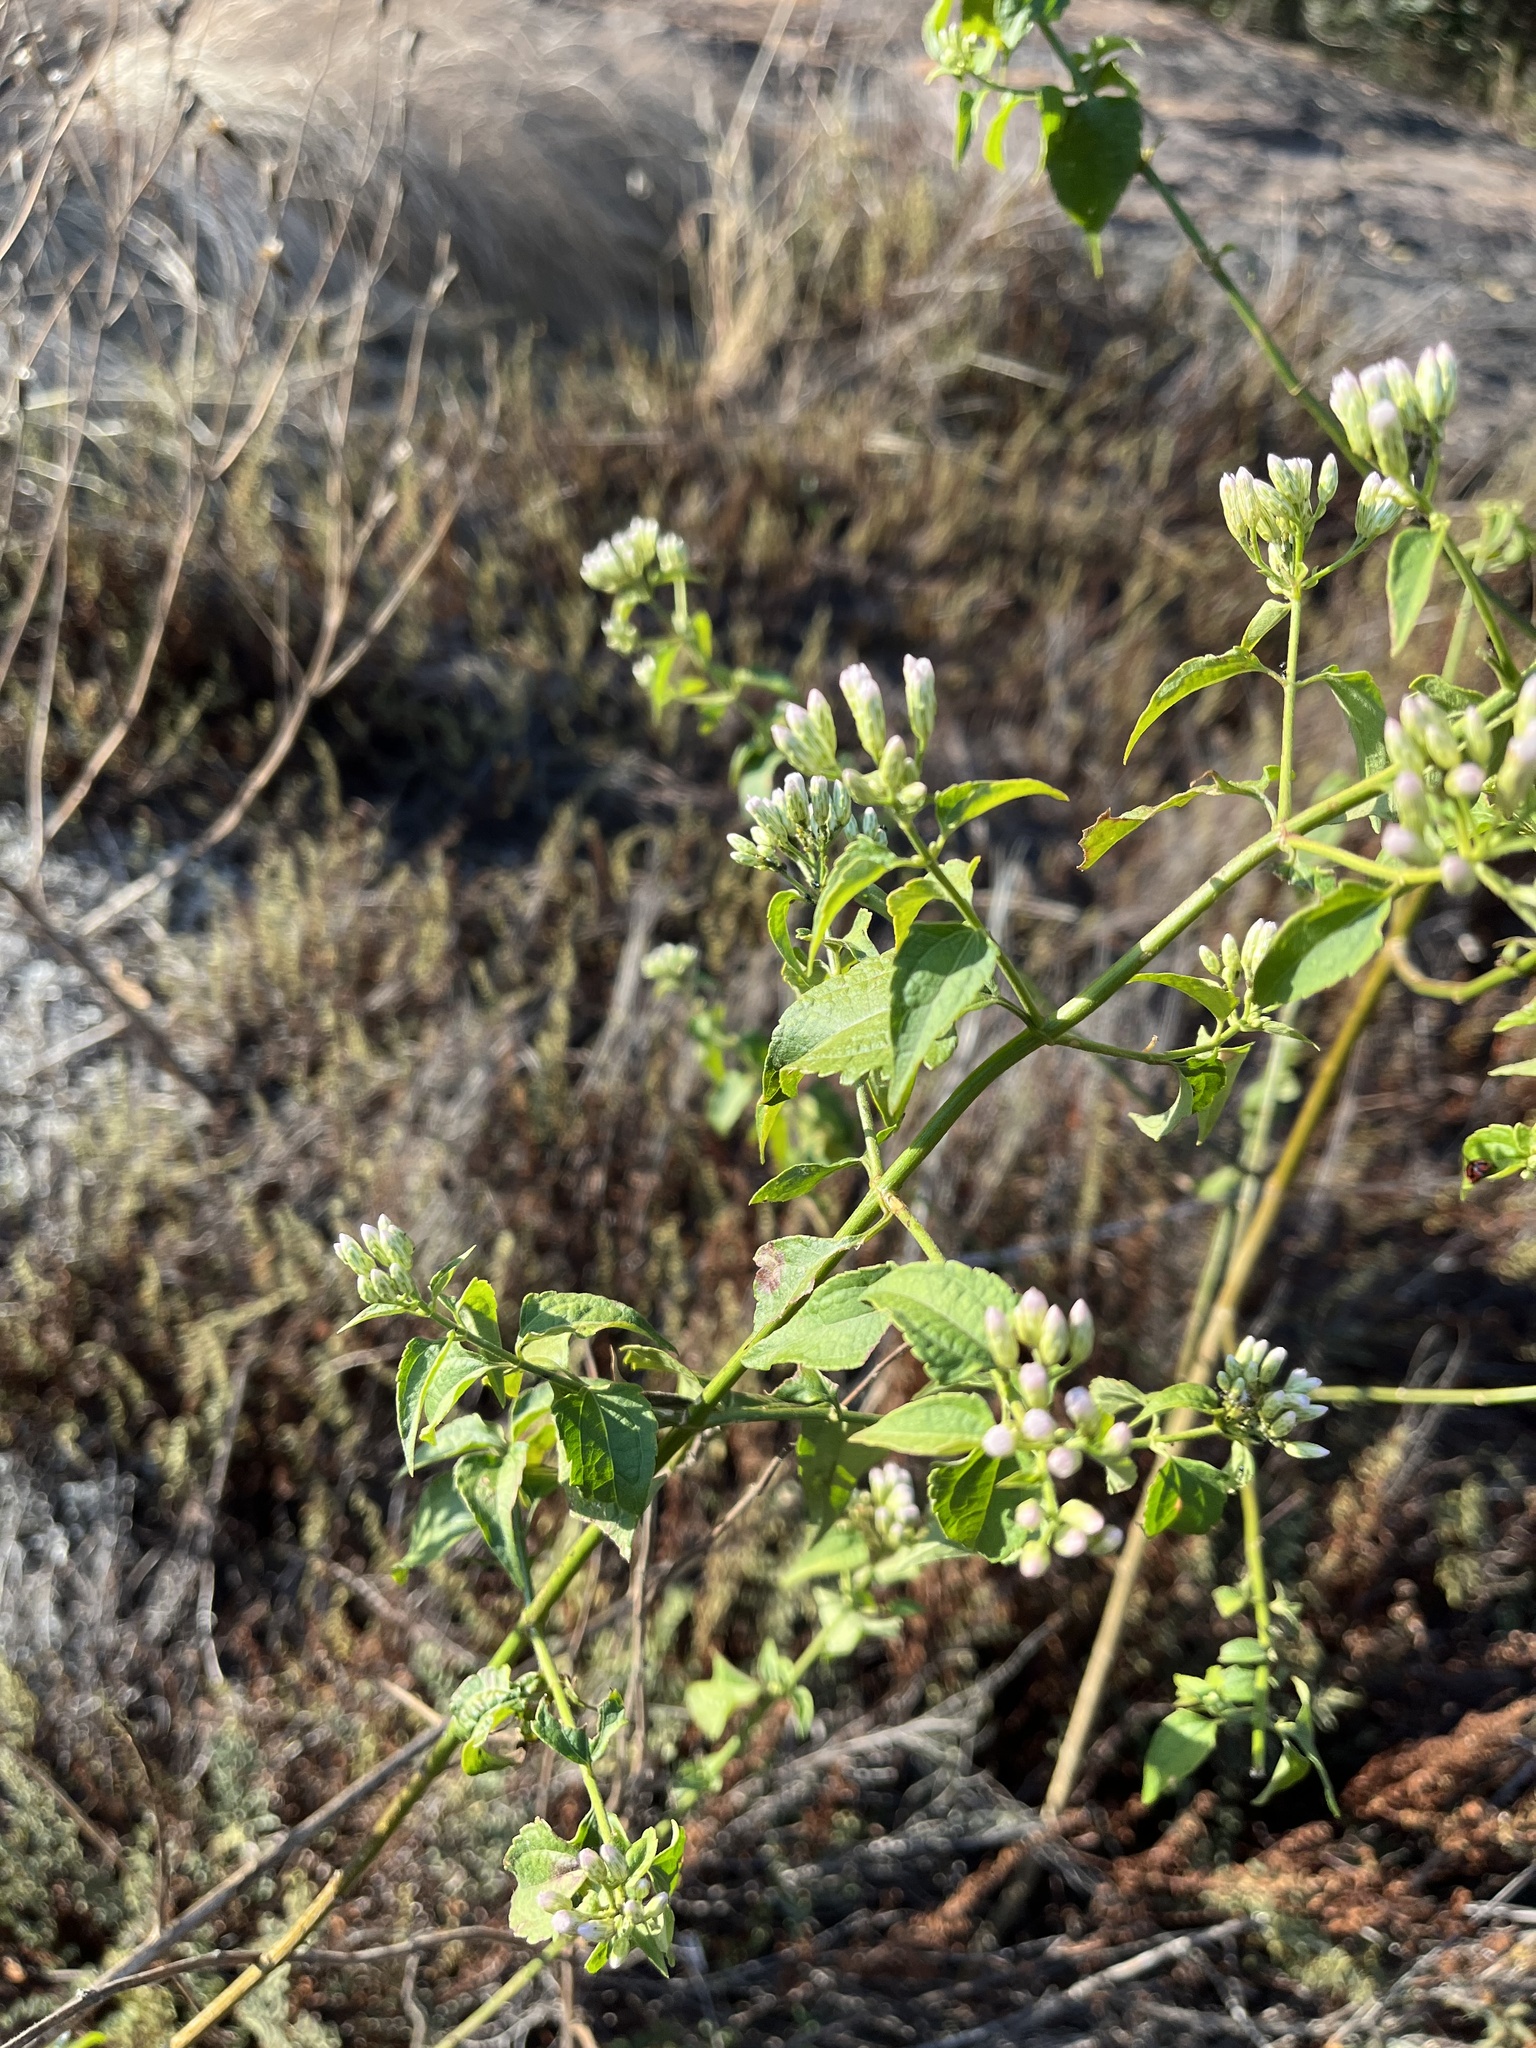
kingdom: Plantae
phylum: Tracheophyta
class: Magnoliopsida
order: Asterales
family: Asteraceae
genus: Chromolaena
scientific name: Chromolaena odorata
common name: Siamweed
